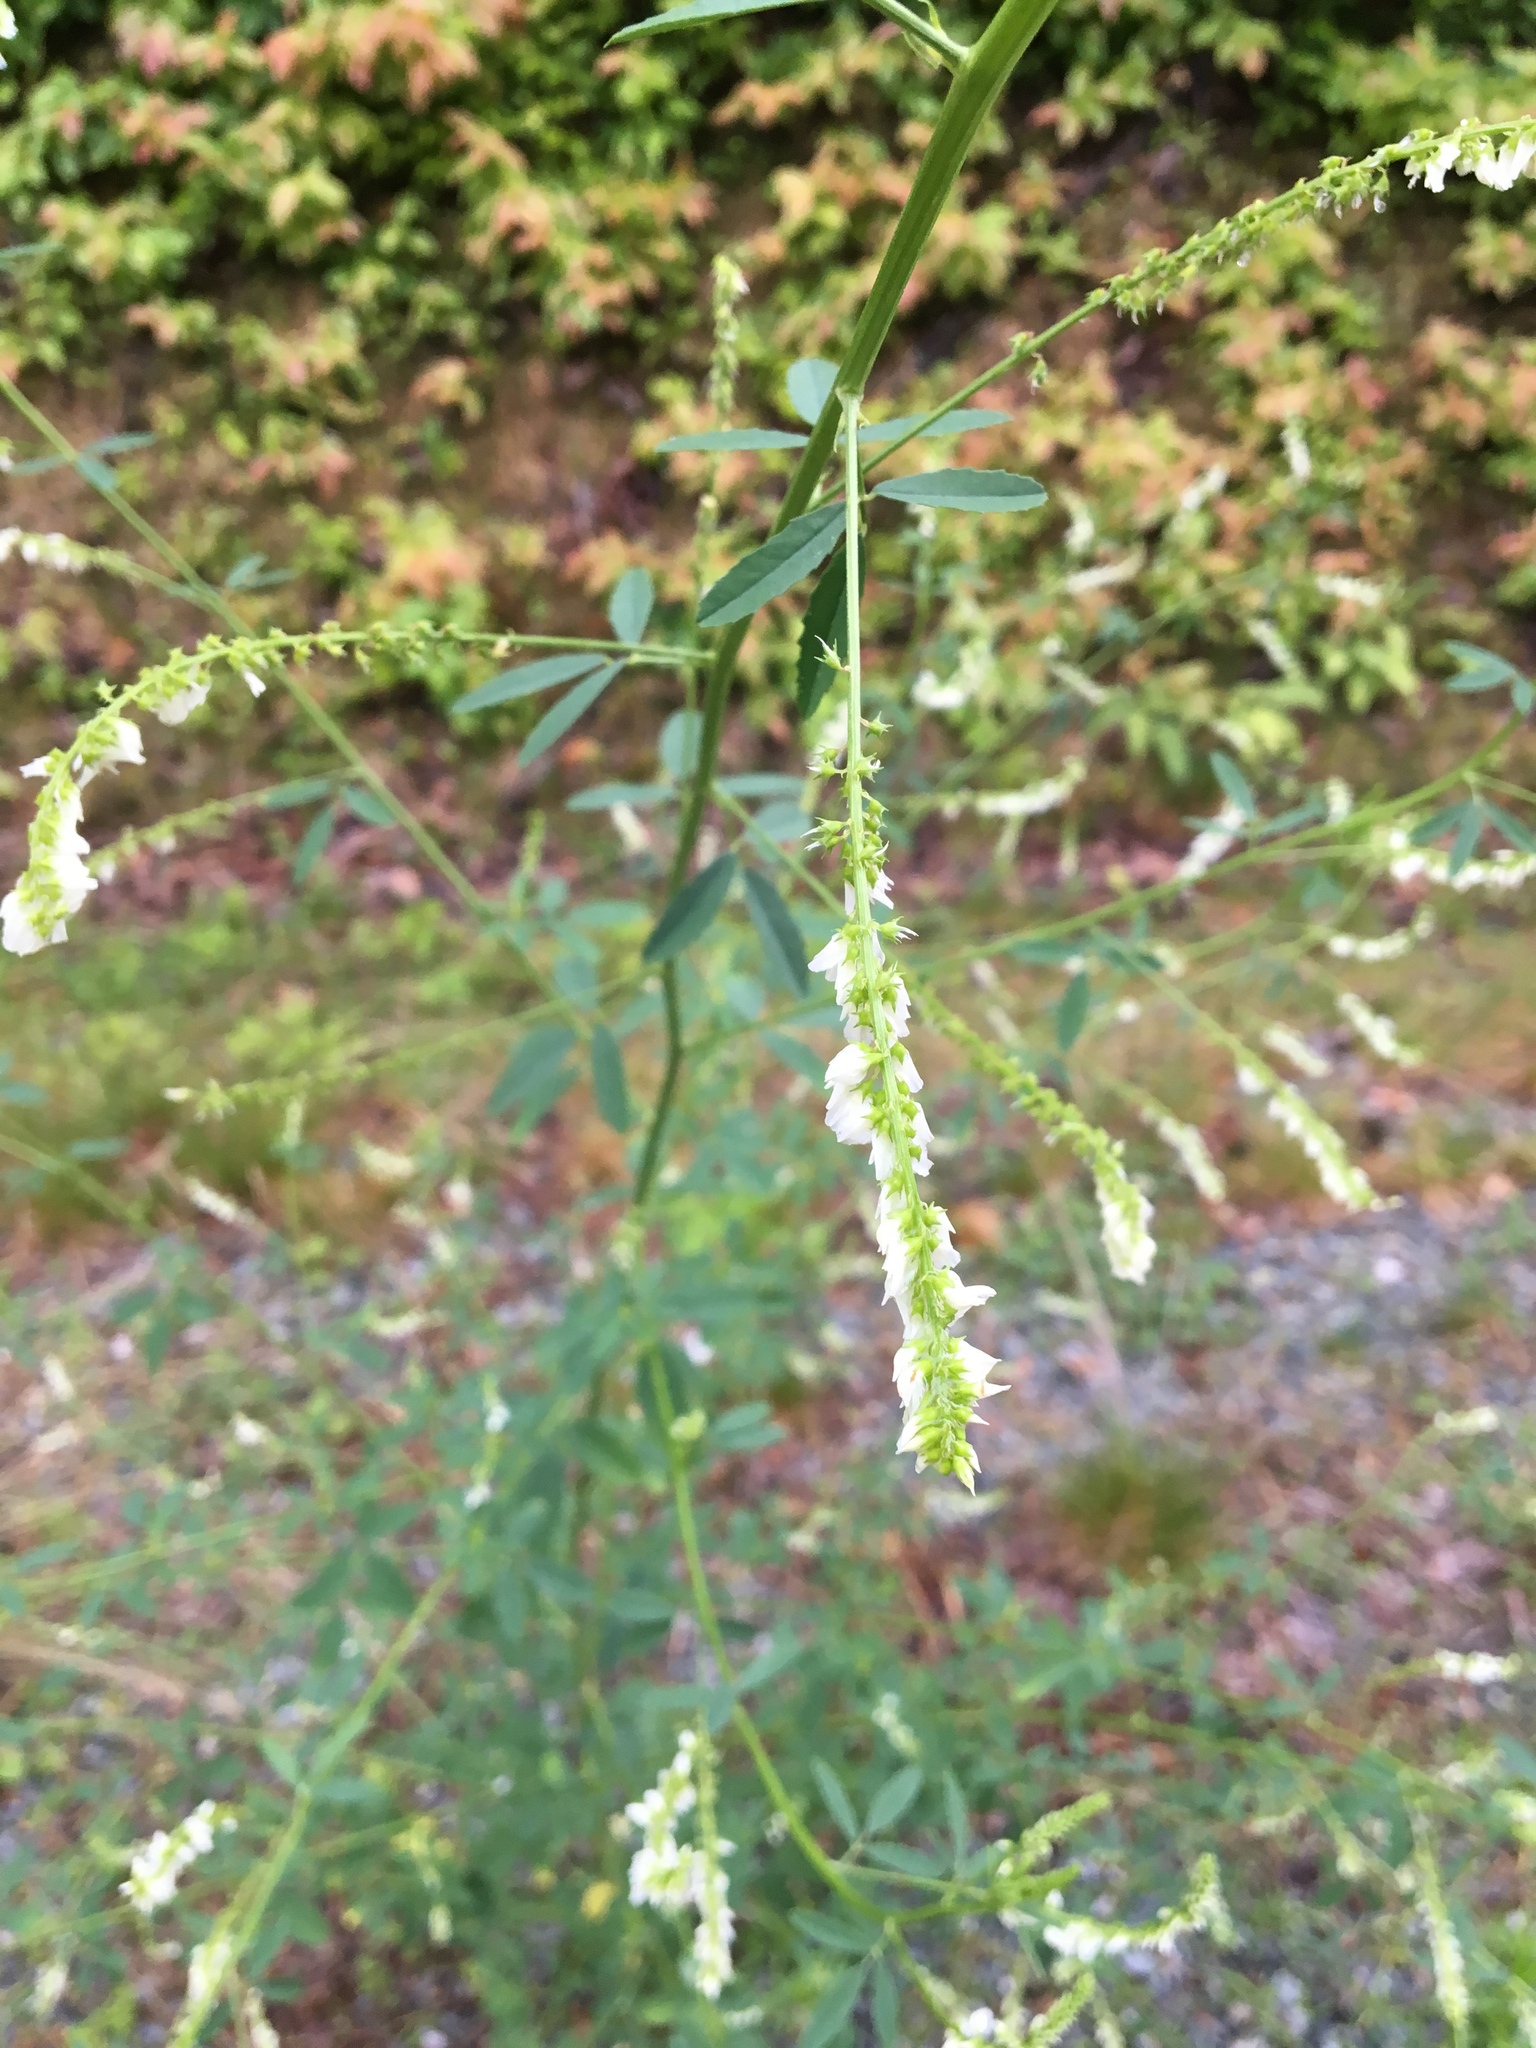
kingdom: Plantae
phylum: Tracheophyta
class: Magnoliopsida
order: Fabales
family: Fabaceae
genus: Melilotus
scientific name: Melilotus albus
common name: White melilot
